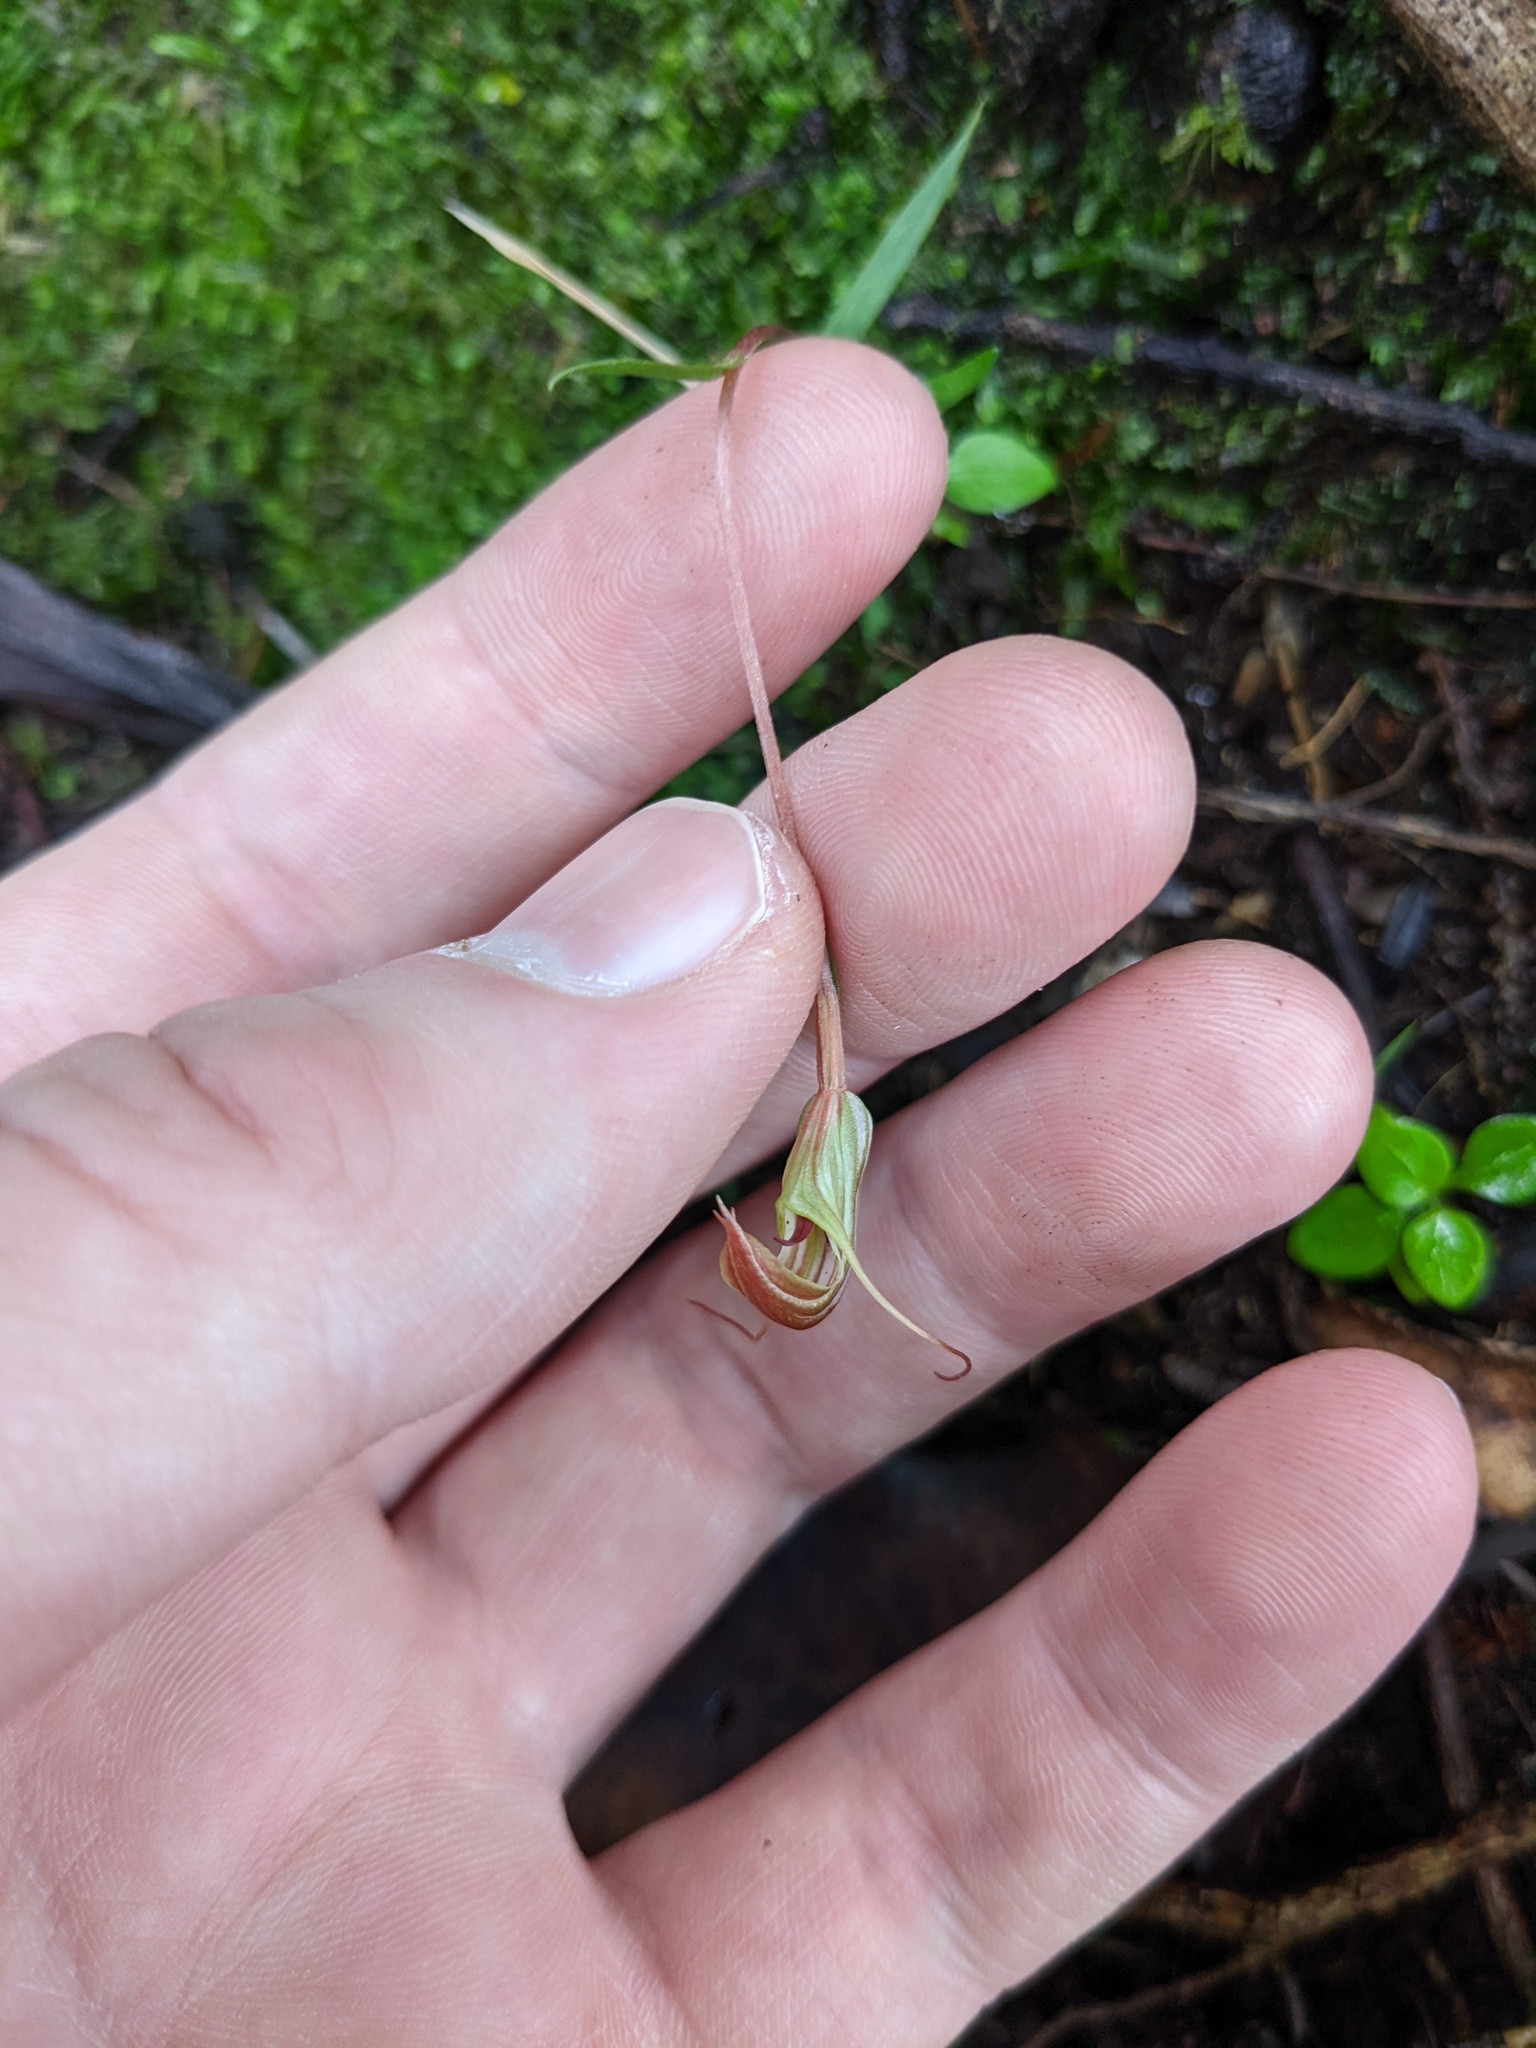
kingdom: Plantae
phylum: Tracheophyta
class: Liliopsida
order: Asparagales
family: Orchidaceae
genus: Pterostylis
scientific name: Pterostylis trullifolia
